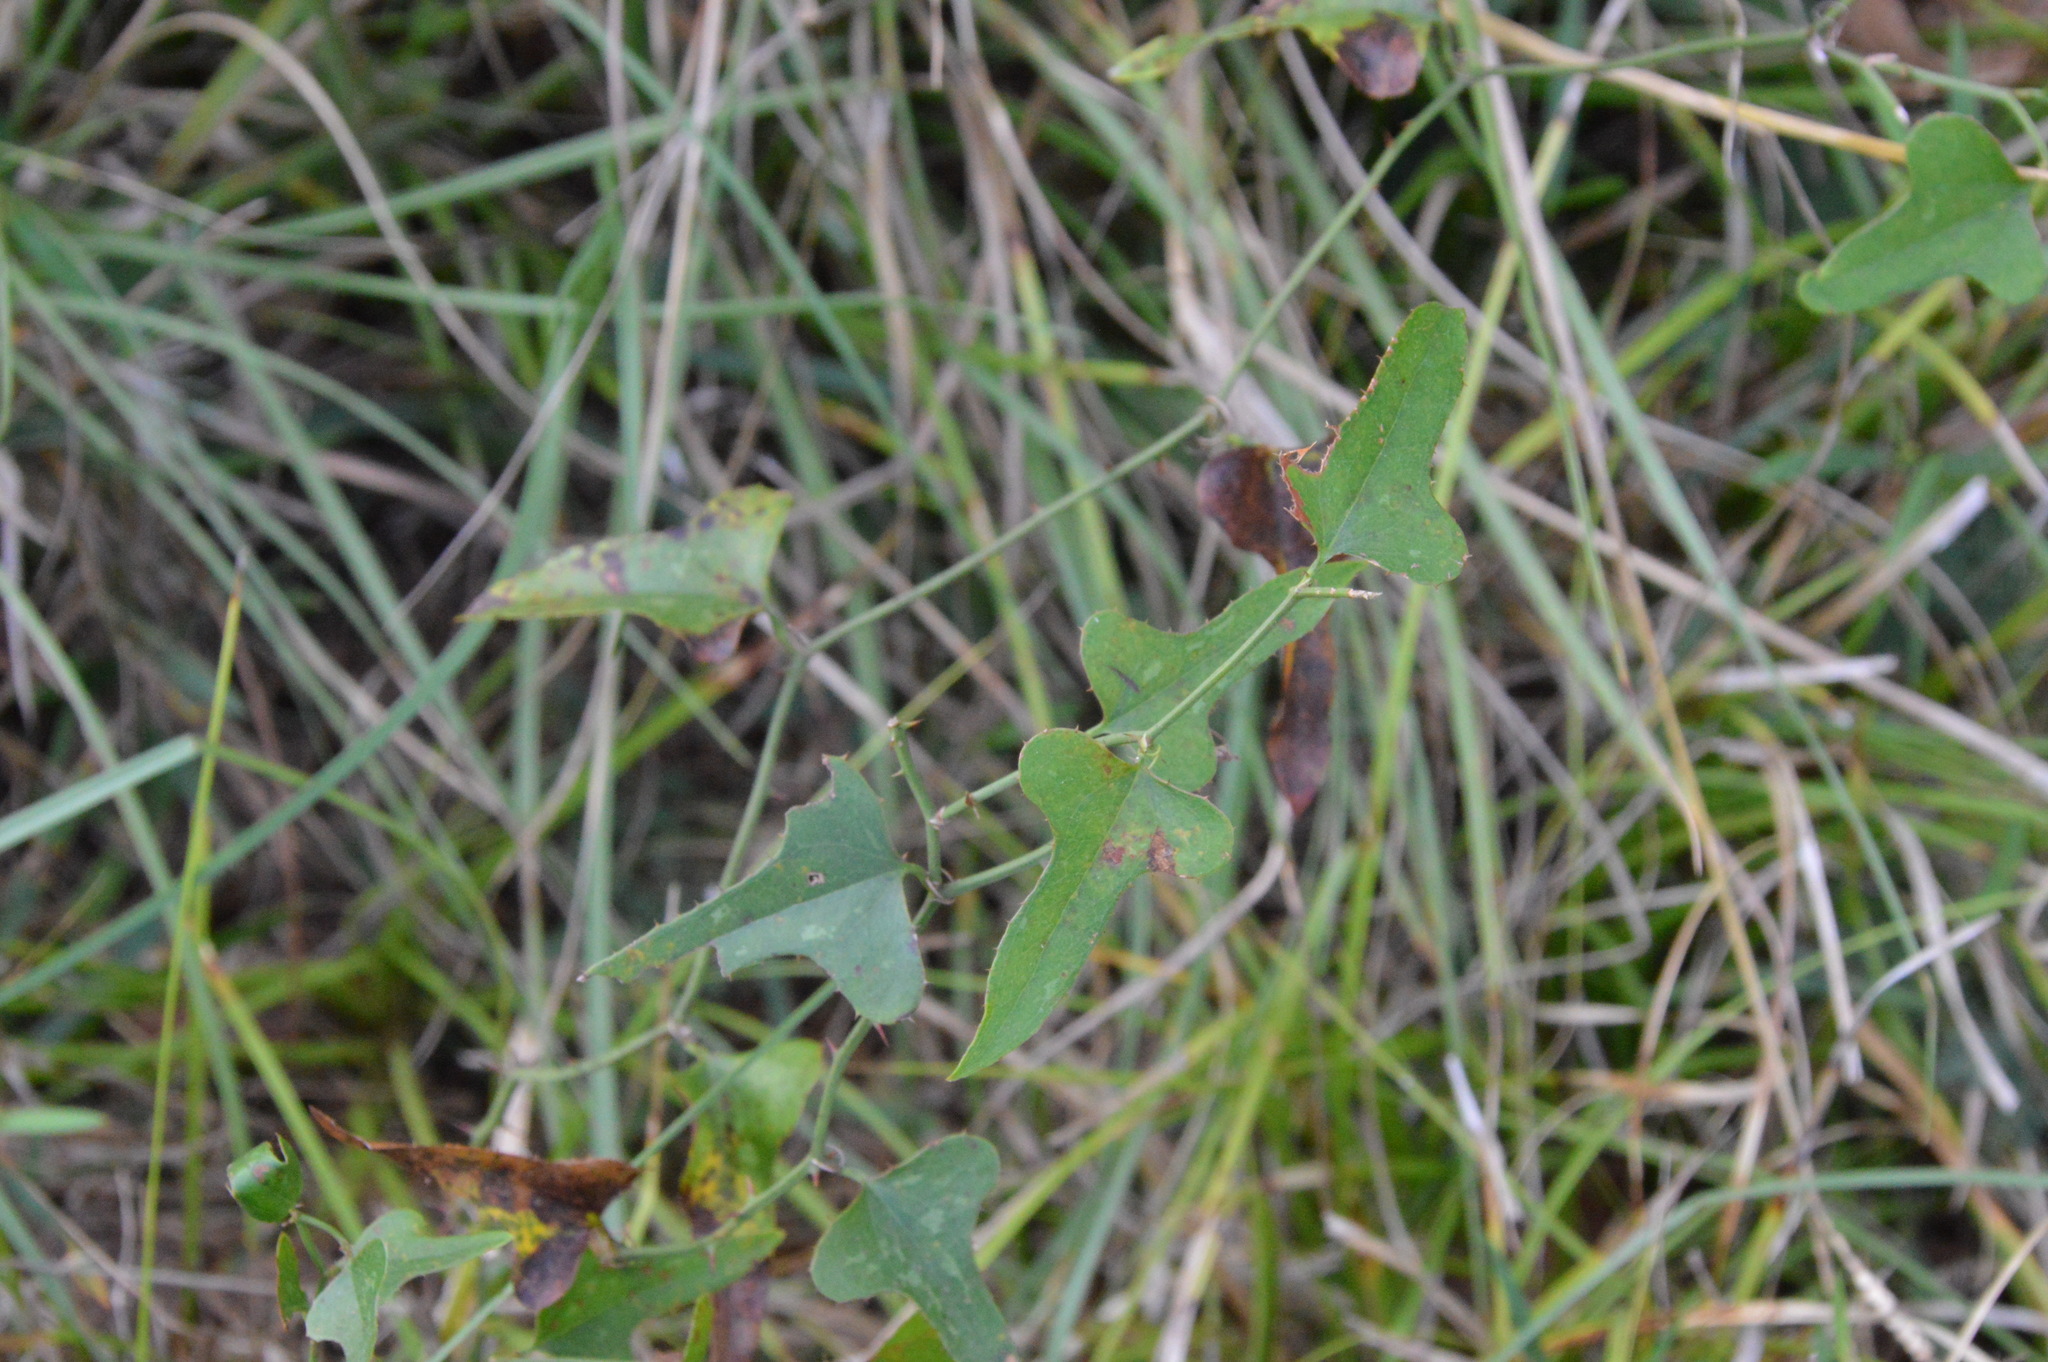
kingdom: Plantae
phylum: Tracheophyta
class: Liliopsida
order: Liliales
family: Smilacaceae
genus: Smilax
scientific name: Smilax bona-nox
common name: Catbrier
